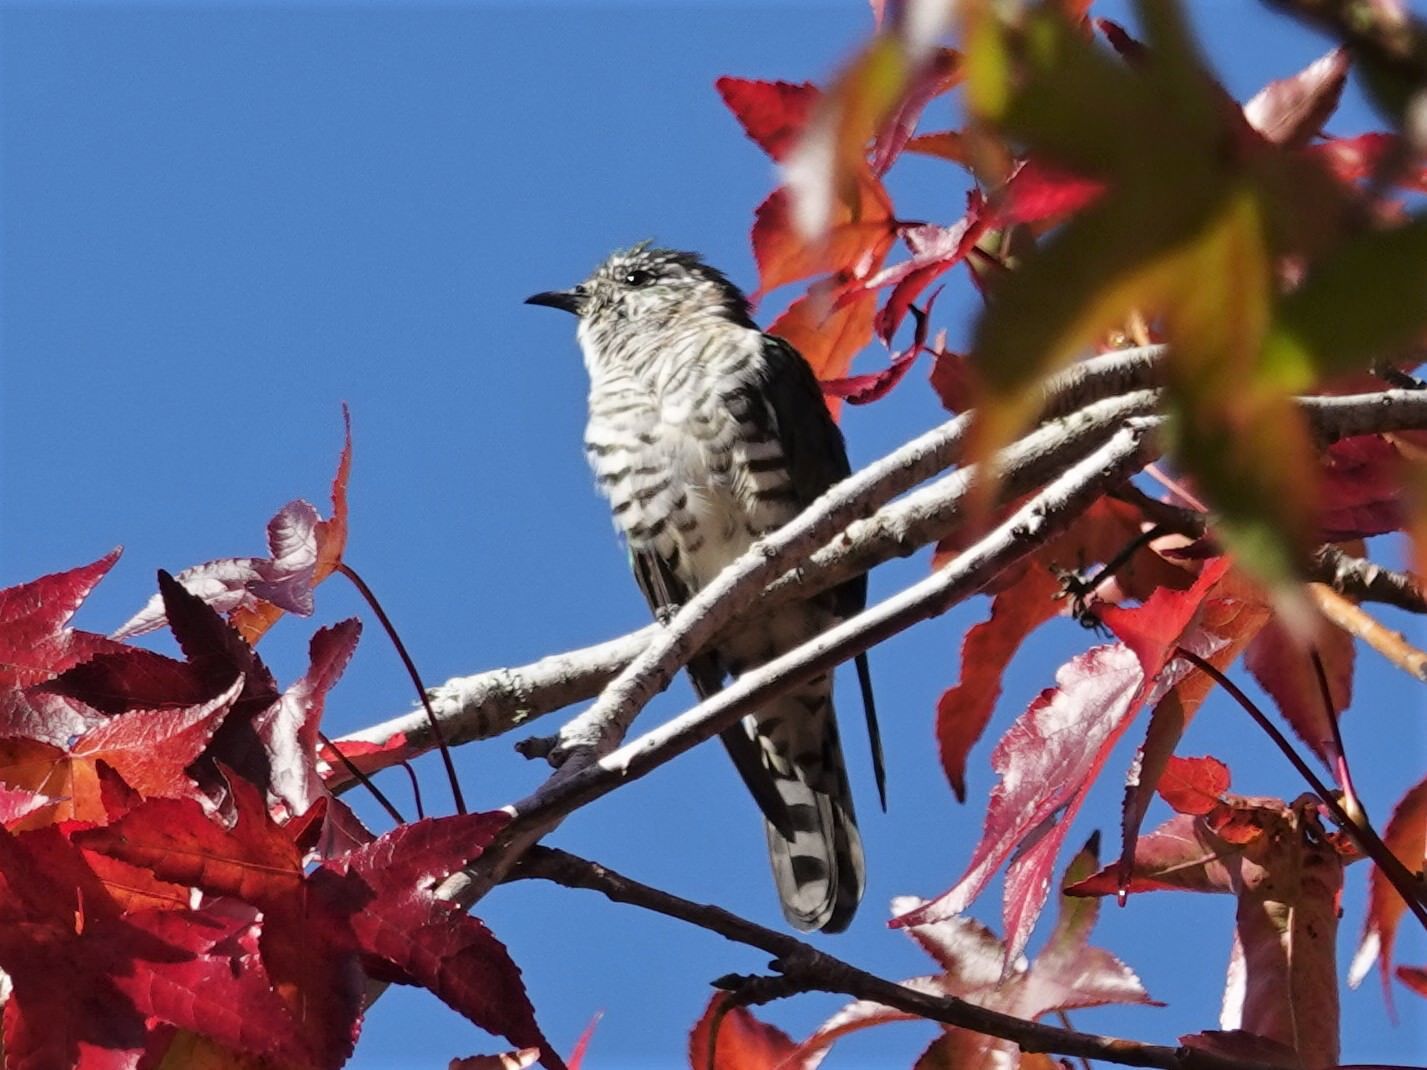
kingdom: Animalia
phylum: Chordata
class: Aves
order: Cuculiformes
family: Cuculidae
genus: Chrysococcyx
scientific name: Chrysococcyx lucidus
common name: Shining bronze cuckoo
